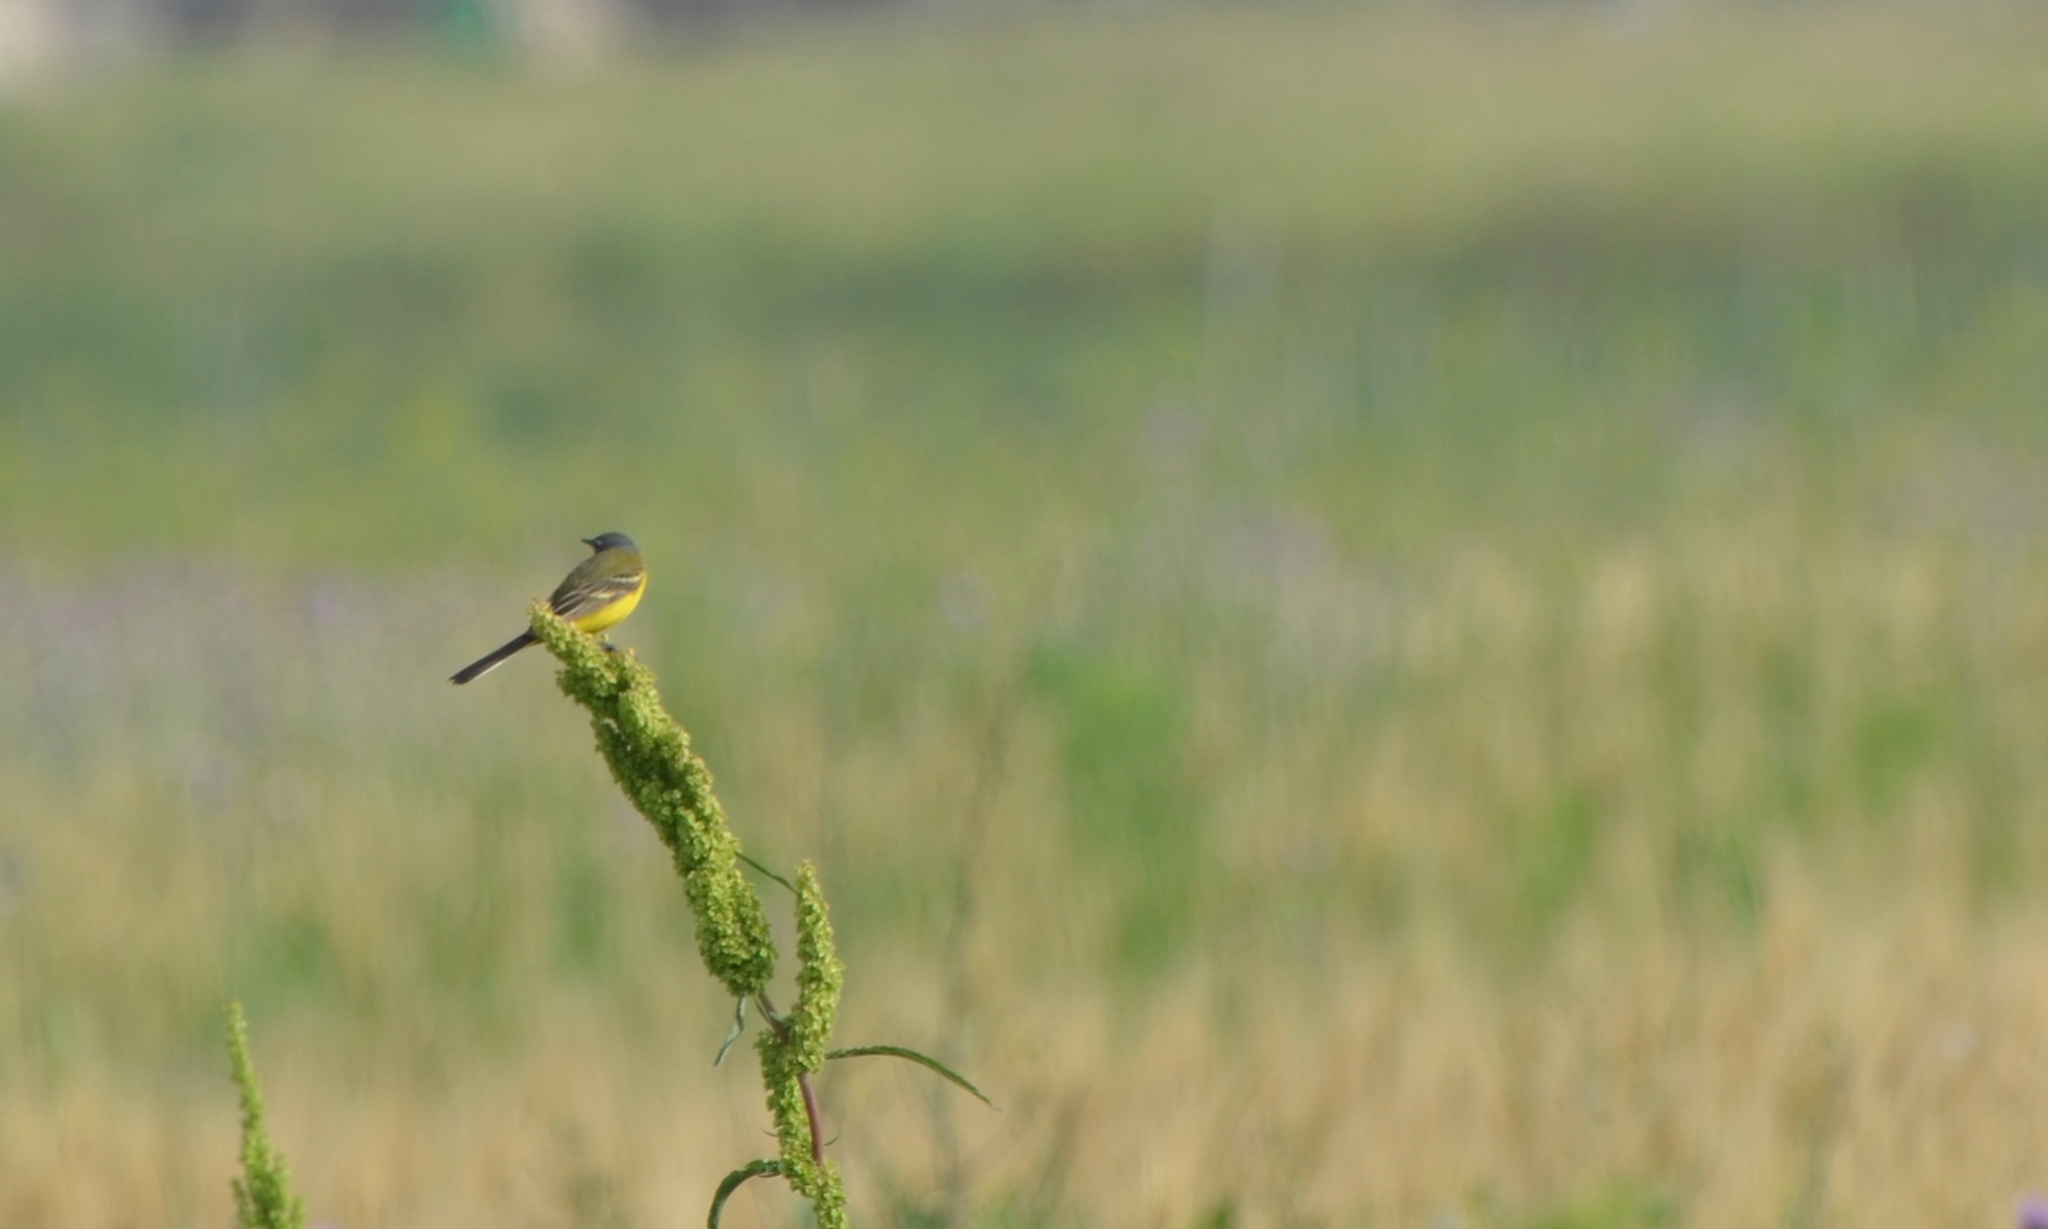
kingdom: Animalia
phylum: Chordata
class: Aves
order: Passeriformes
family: Motacillidae
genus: Motacilla
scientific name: Motacilla flava
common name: Western yellow wagtail
